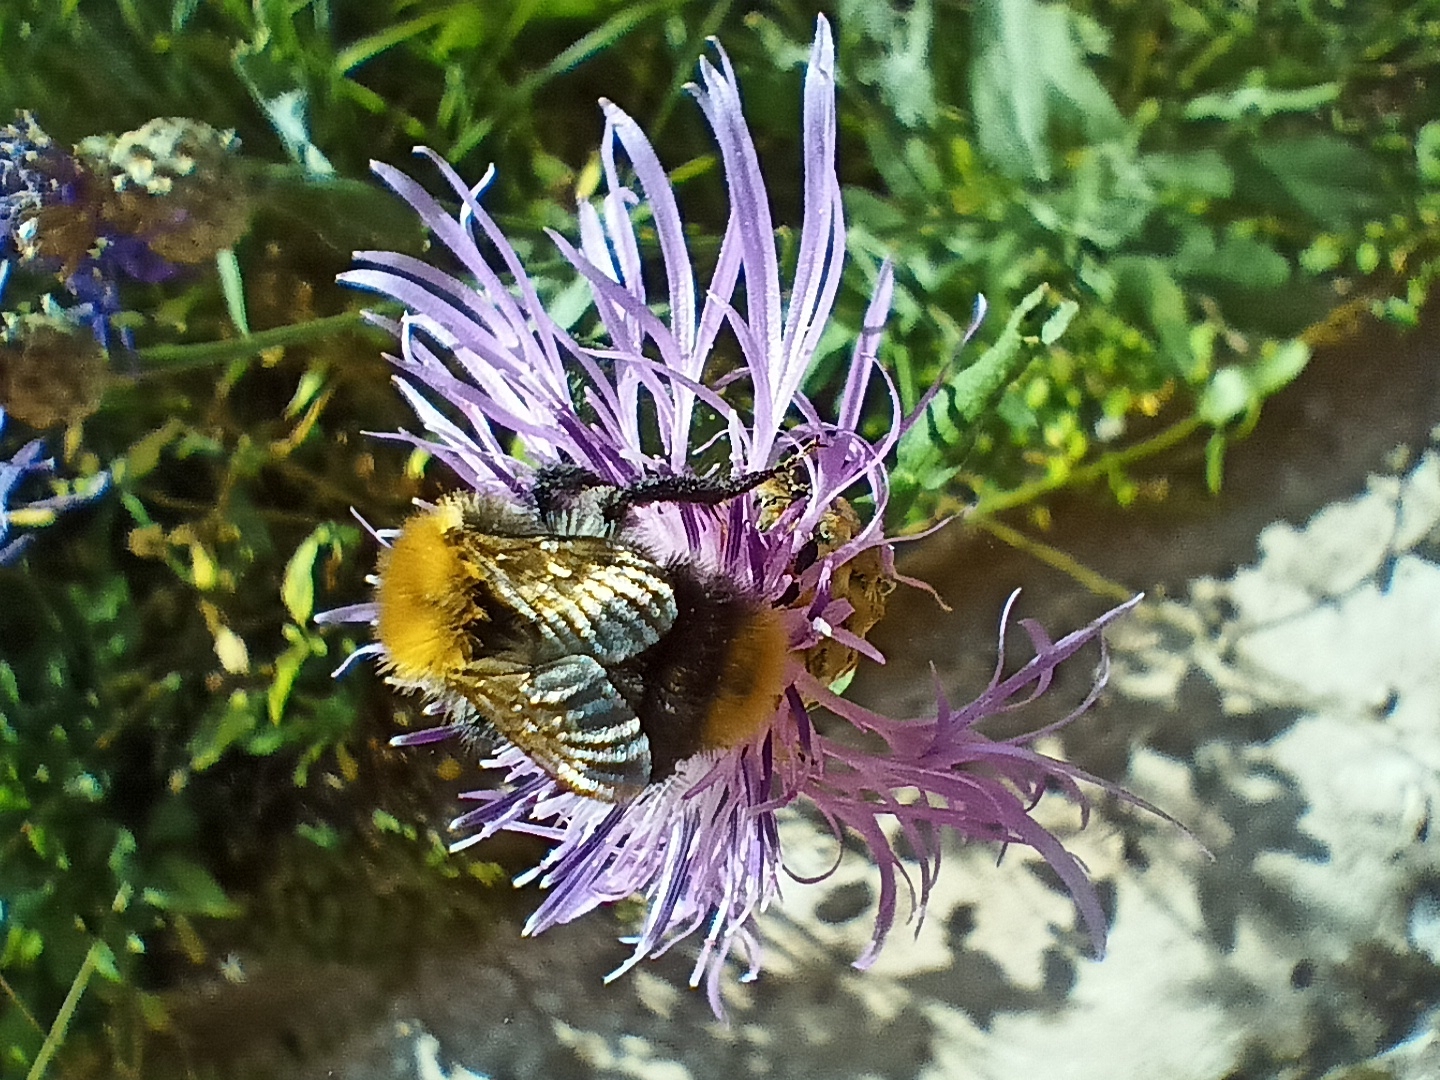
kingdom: Animalia
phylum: Arthropoda
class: Insecta
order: Hymenoptera
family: Apidae
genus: Bombus
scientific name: Bombus pascuorum
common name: Common carder bee
